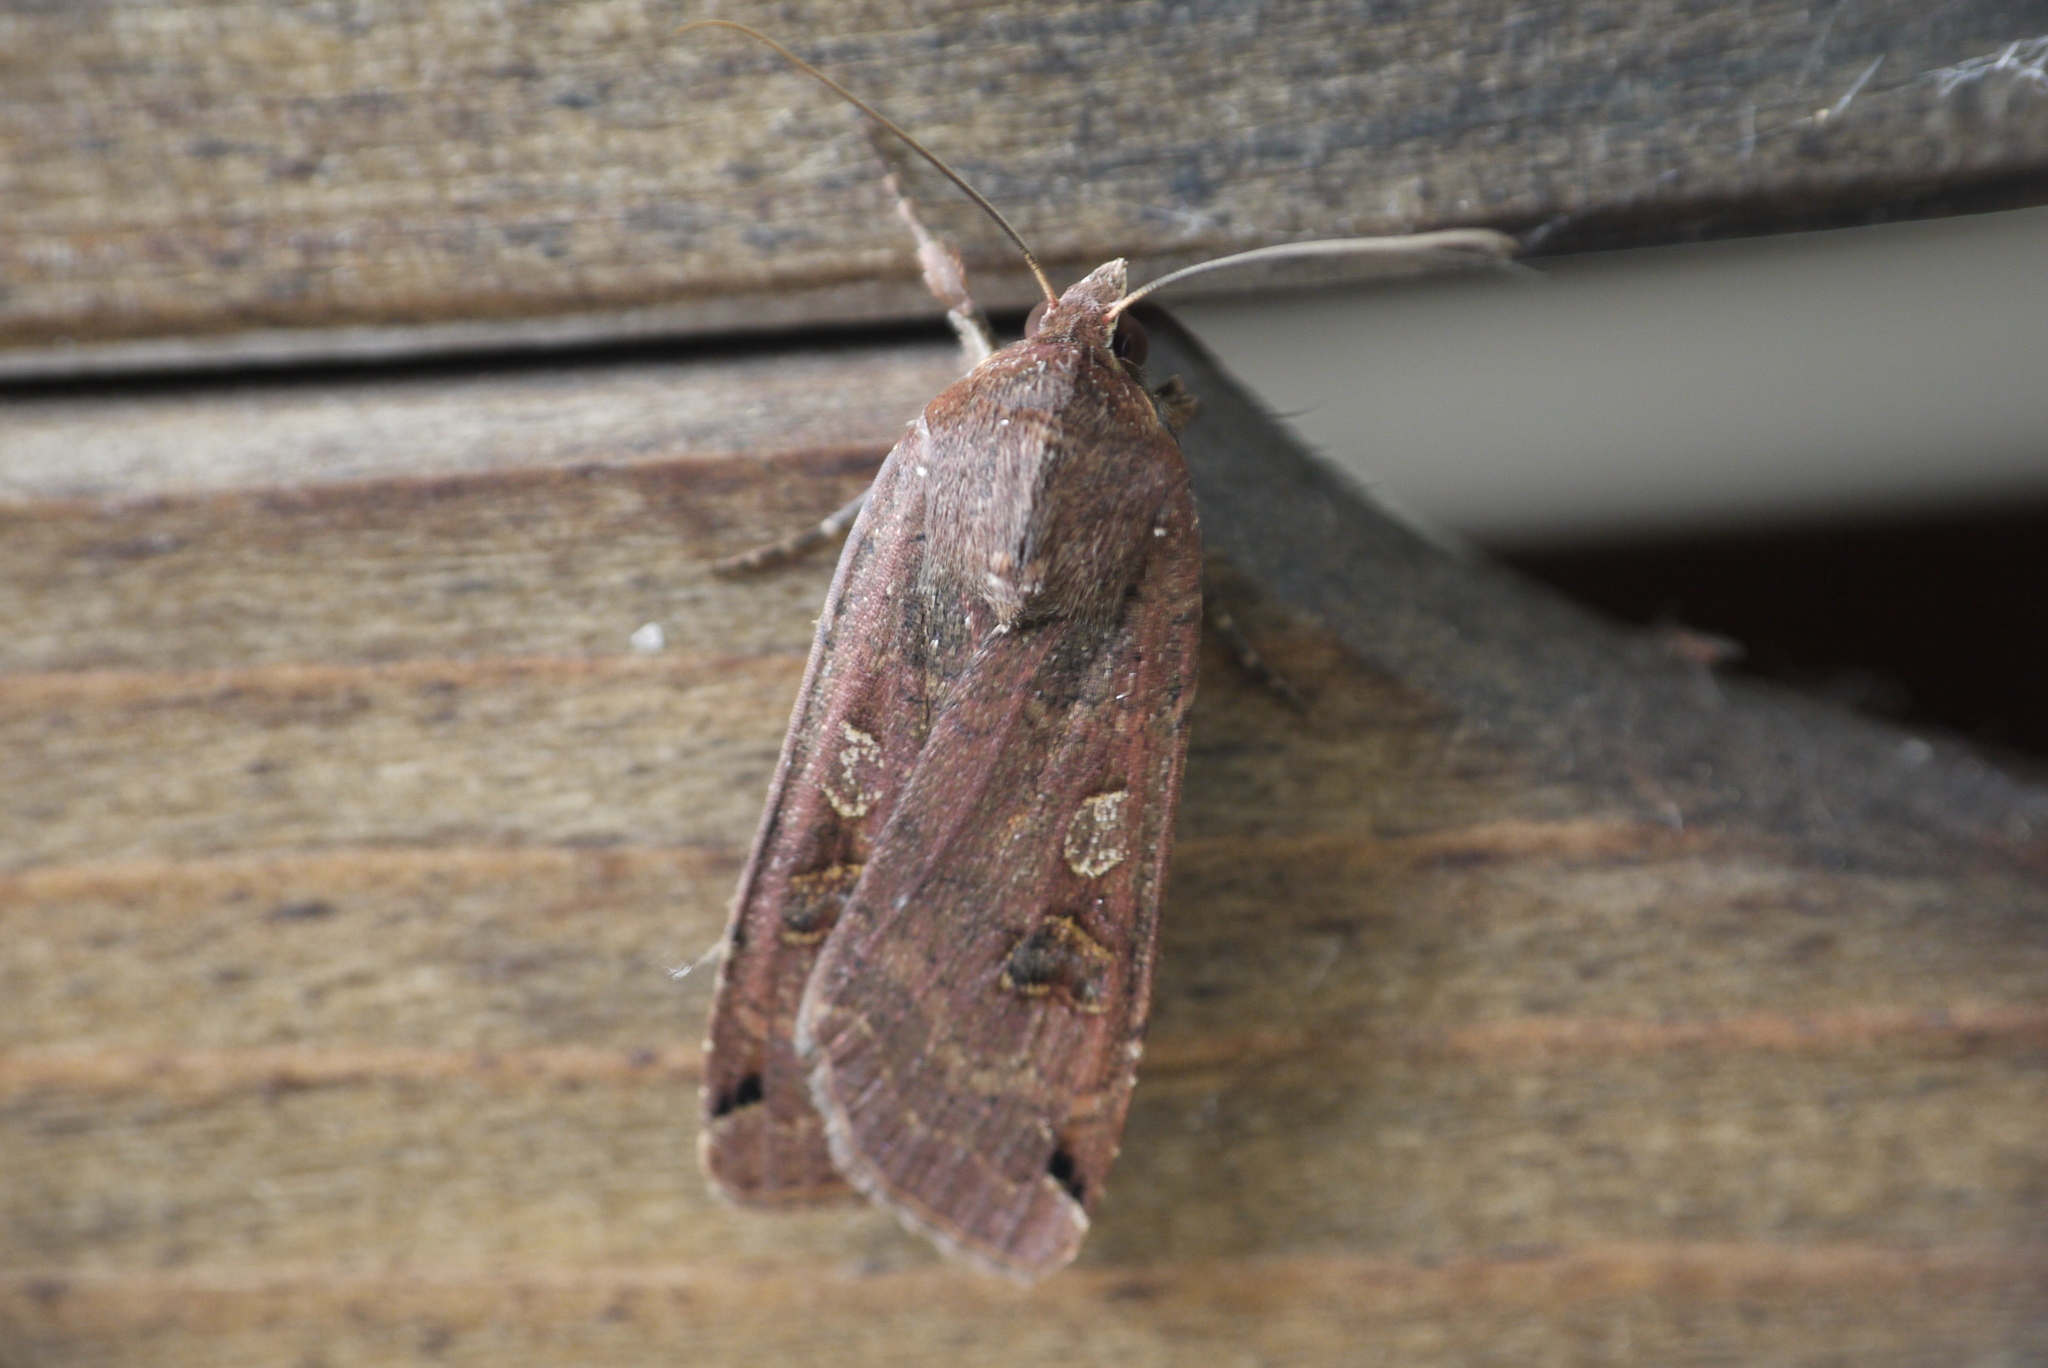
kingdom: Animalia
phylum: Arthropoda
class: Insecta
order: Lepidoptera
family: Noctuidae
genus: Noctua
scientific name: Noctua pronuba
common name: Large yellow underwing
